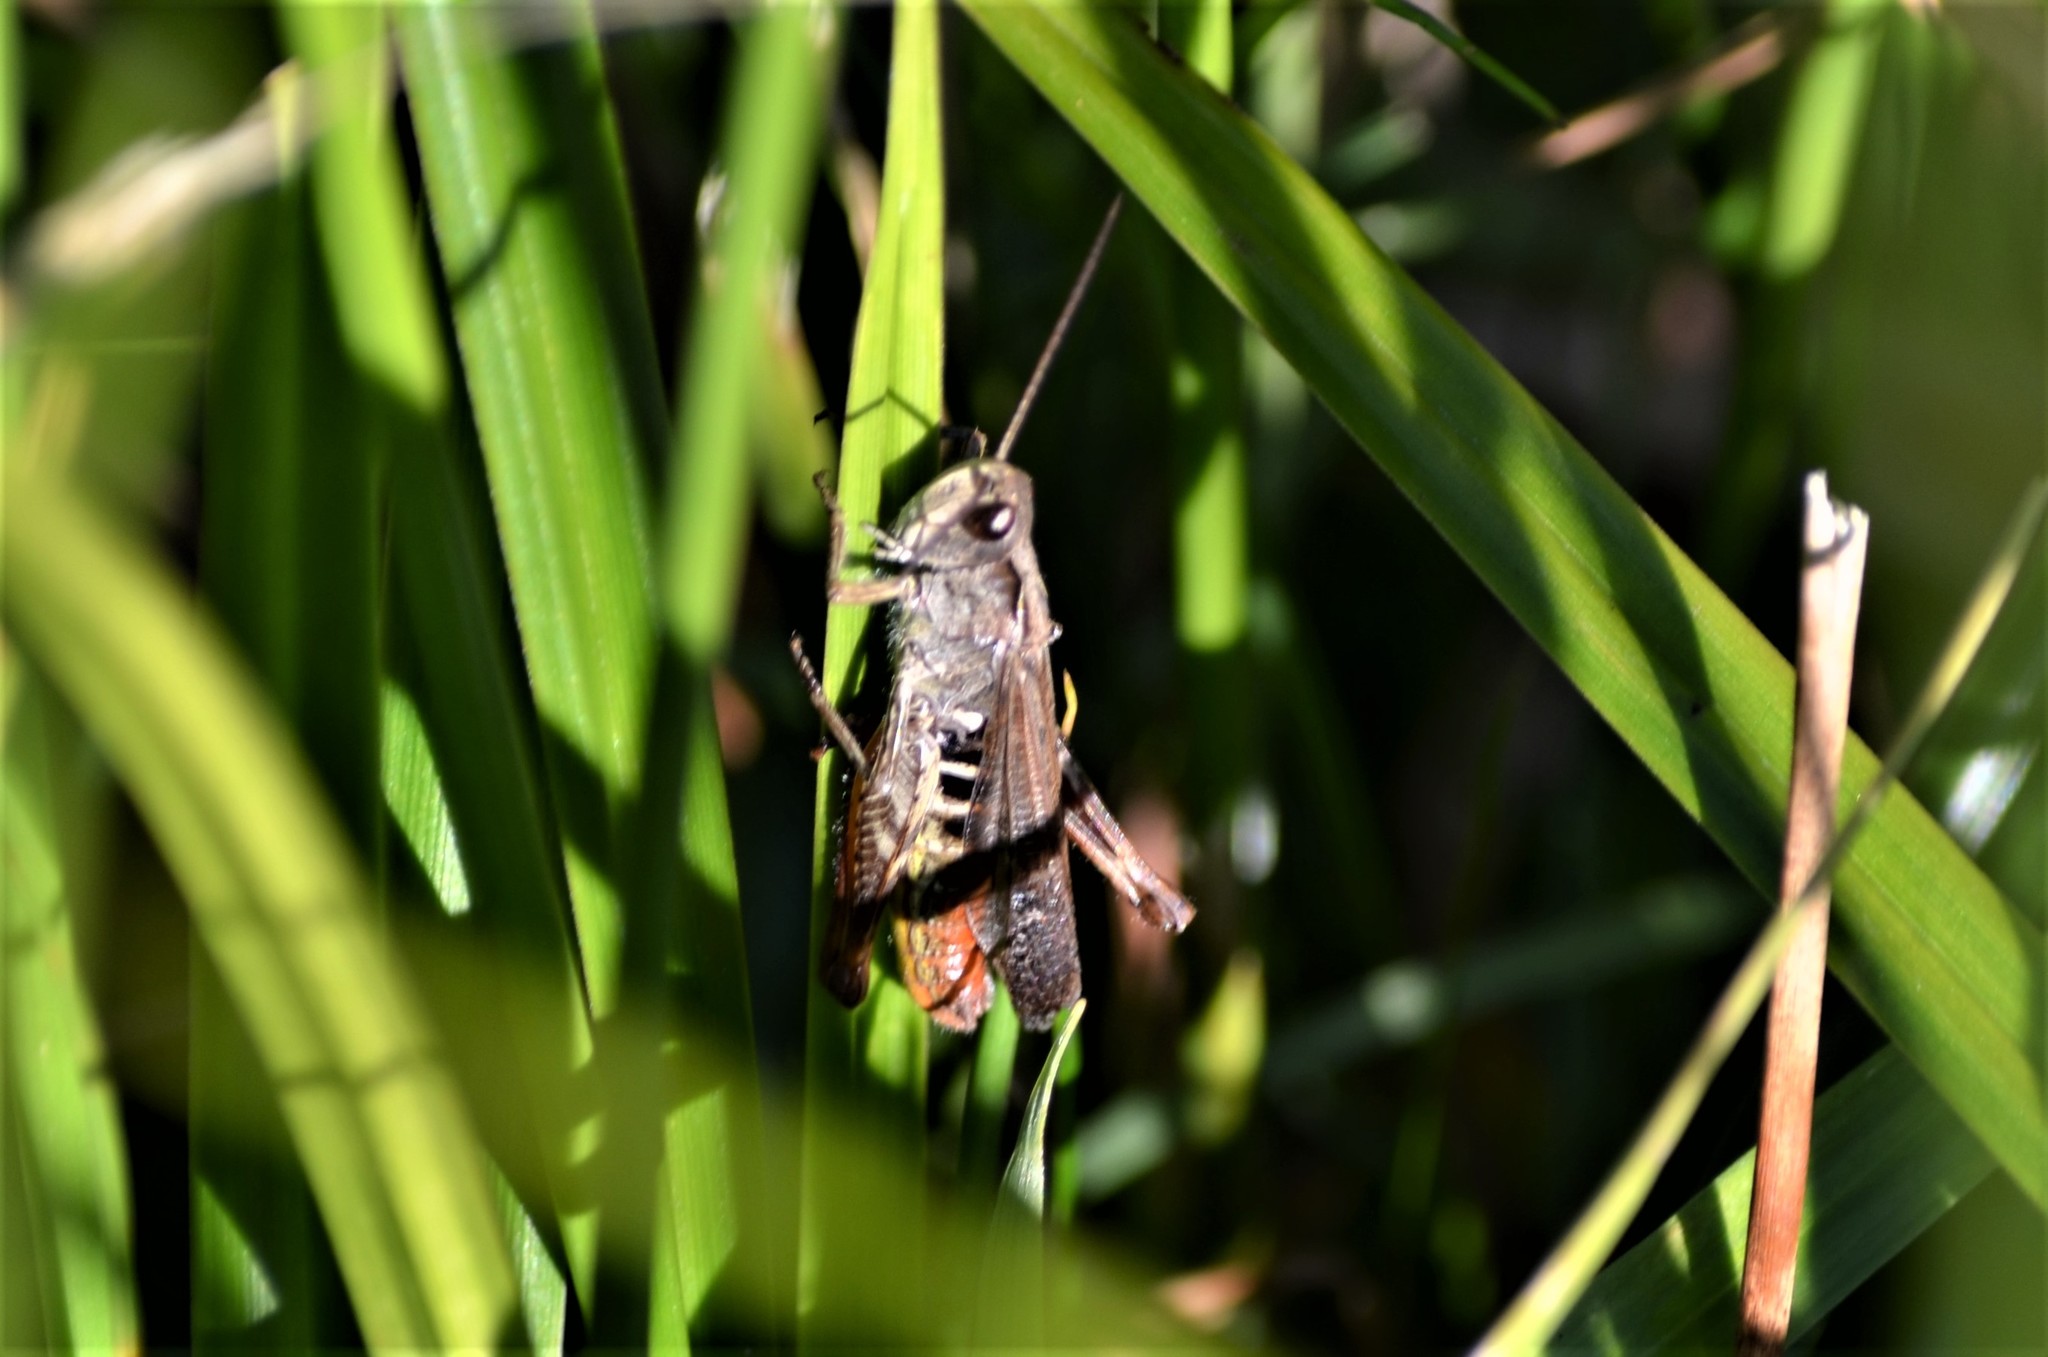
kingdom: Animalia
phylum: Arthropoda
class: Insecta
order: Orthoptera
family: Acrididae
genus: Chorthippus
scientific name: Chorthippus biguttulus
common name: Bow-winged grasshopper
